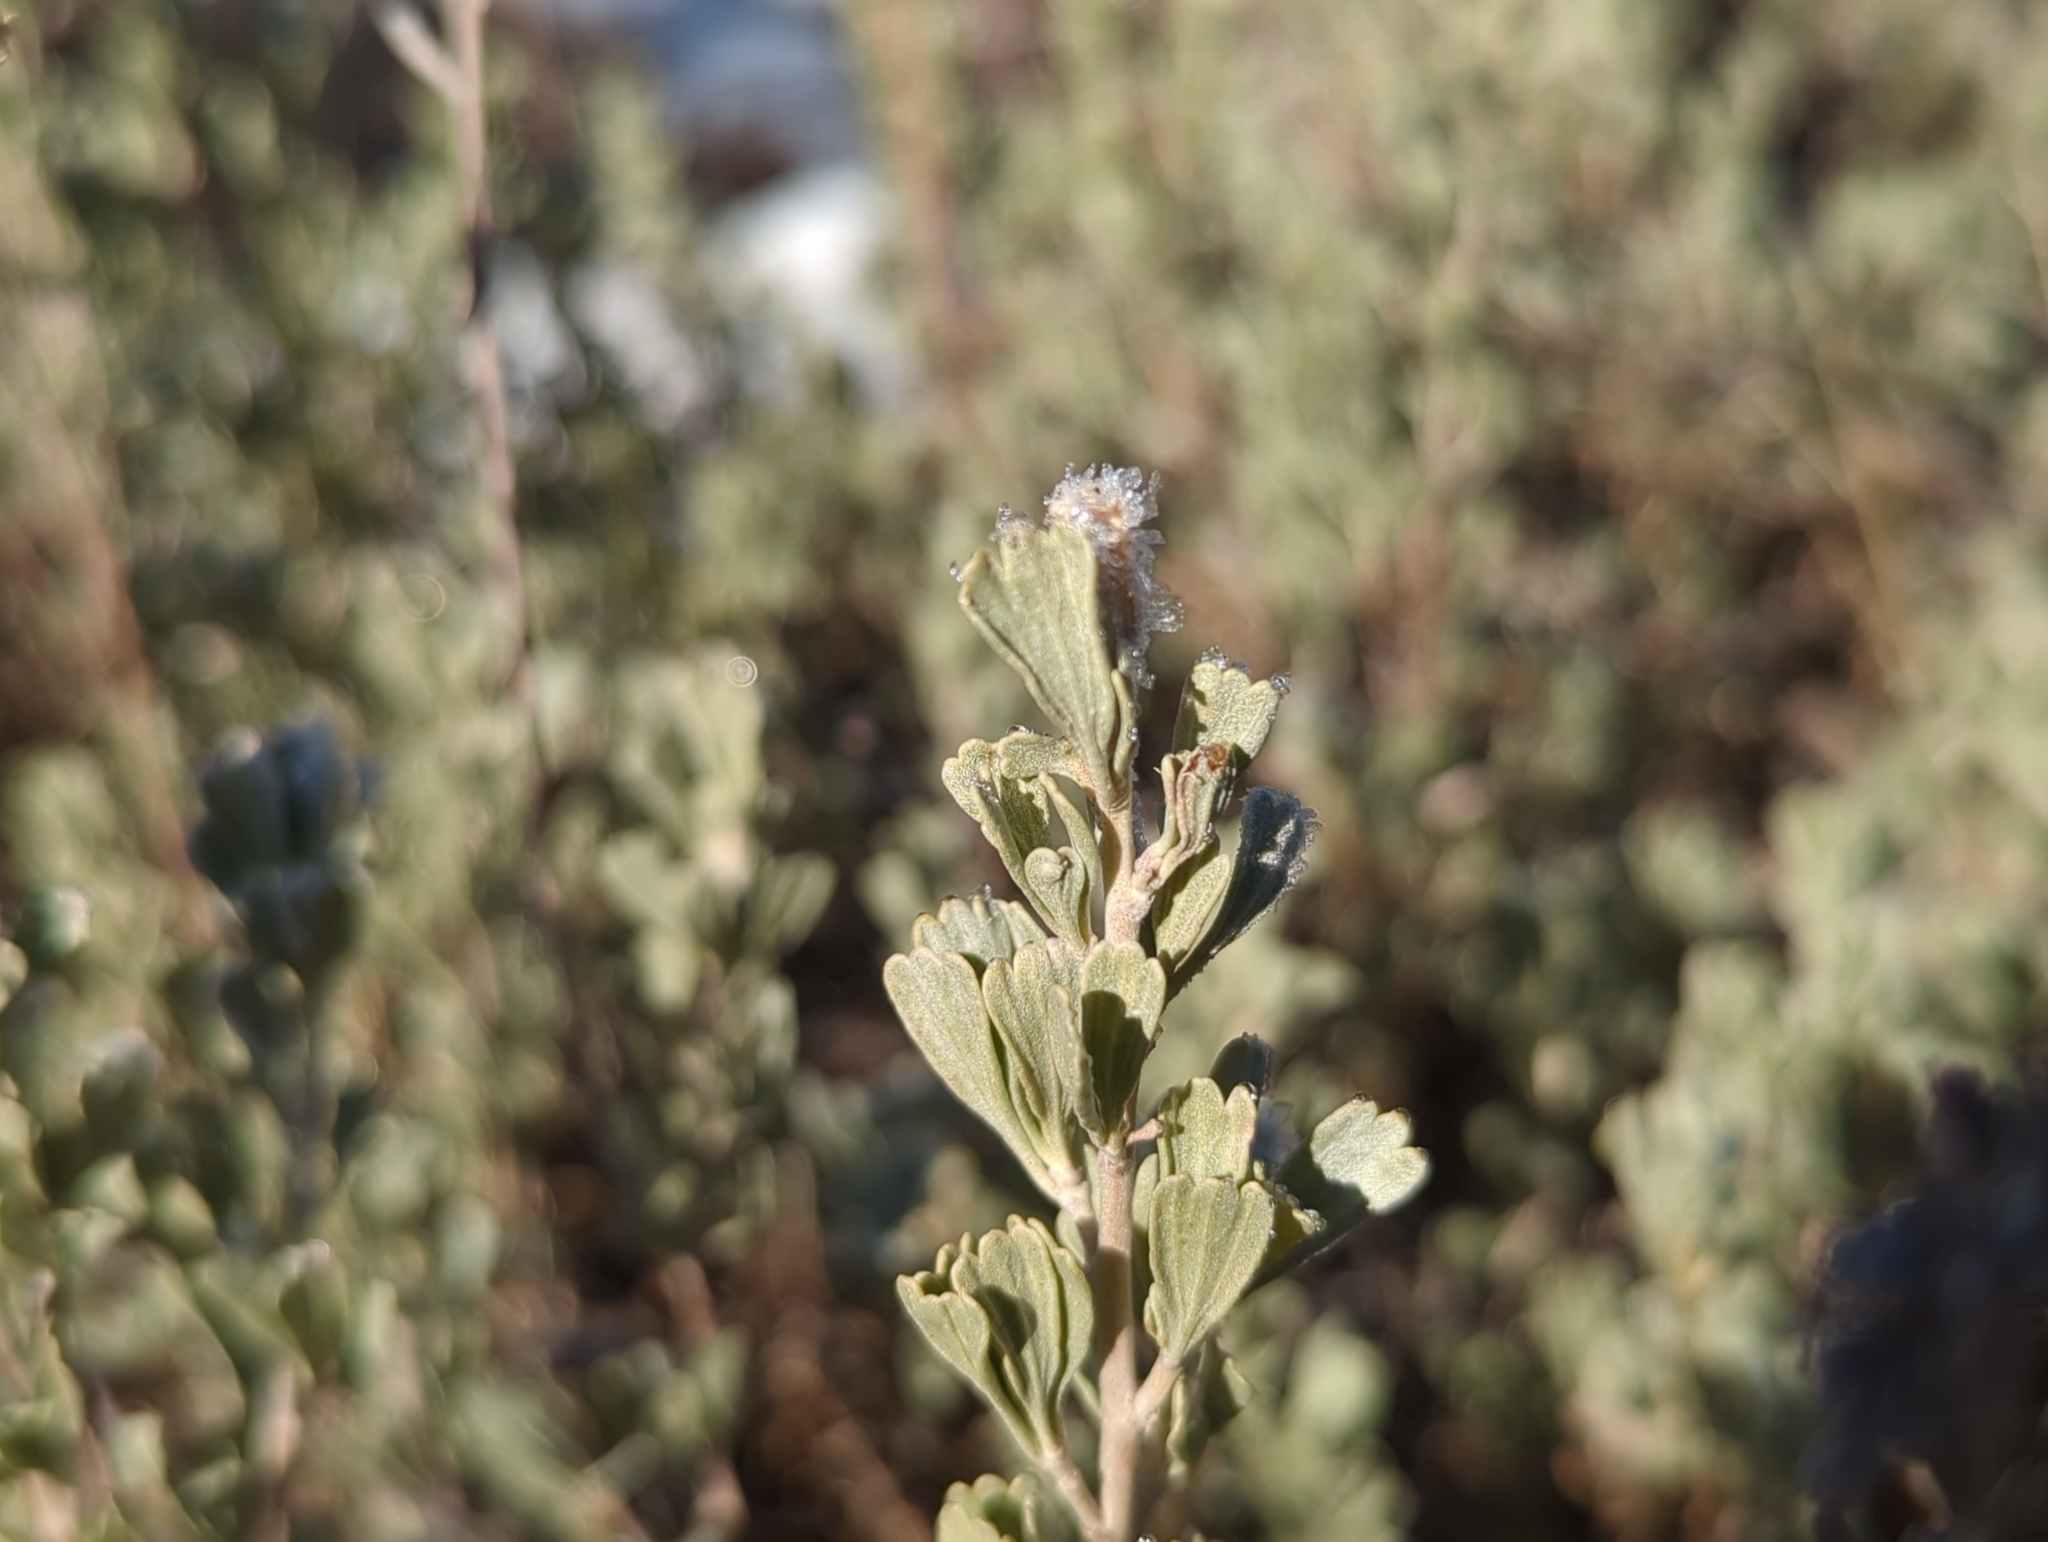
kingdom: Plantae
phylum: Tracheophyta
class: Magnoliopsida
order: Asterales
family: Asteraceae
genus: Artemisia
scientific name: Artemisia tridentata
